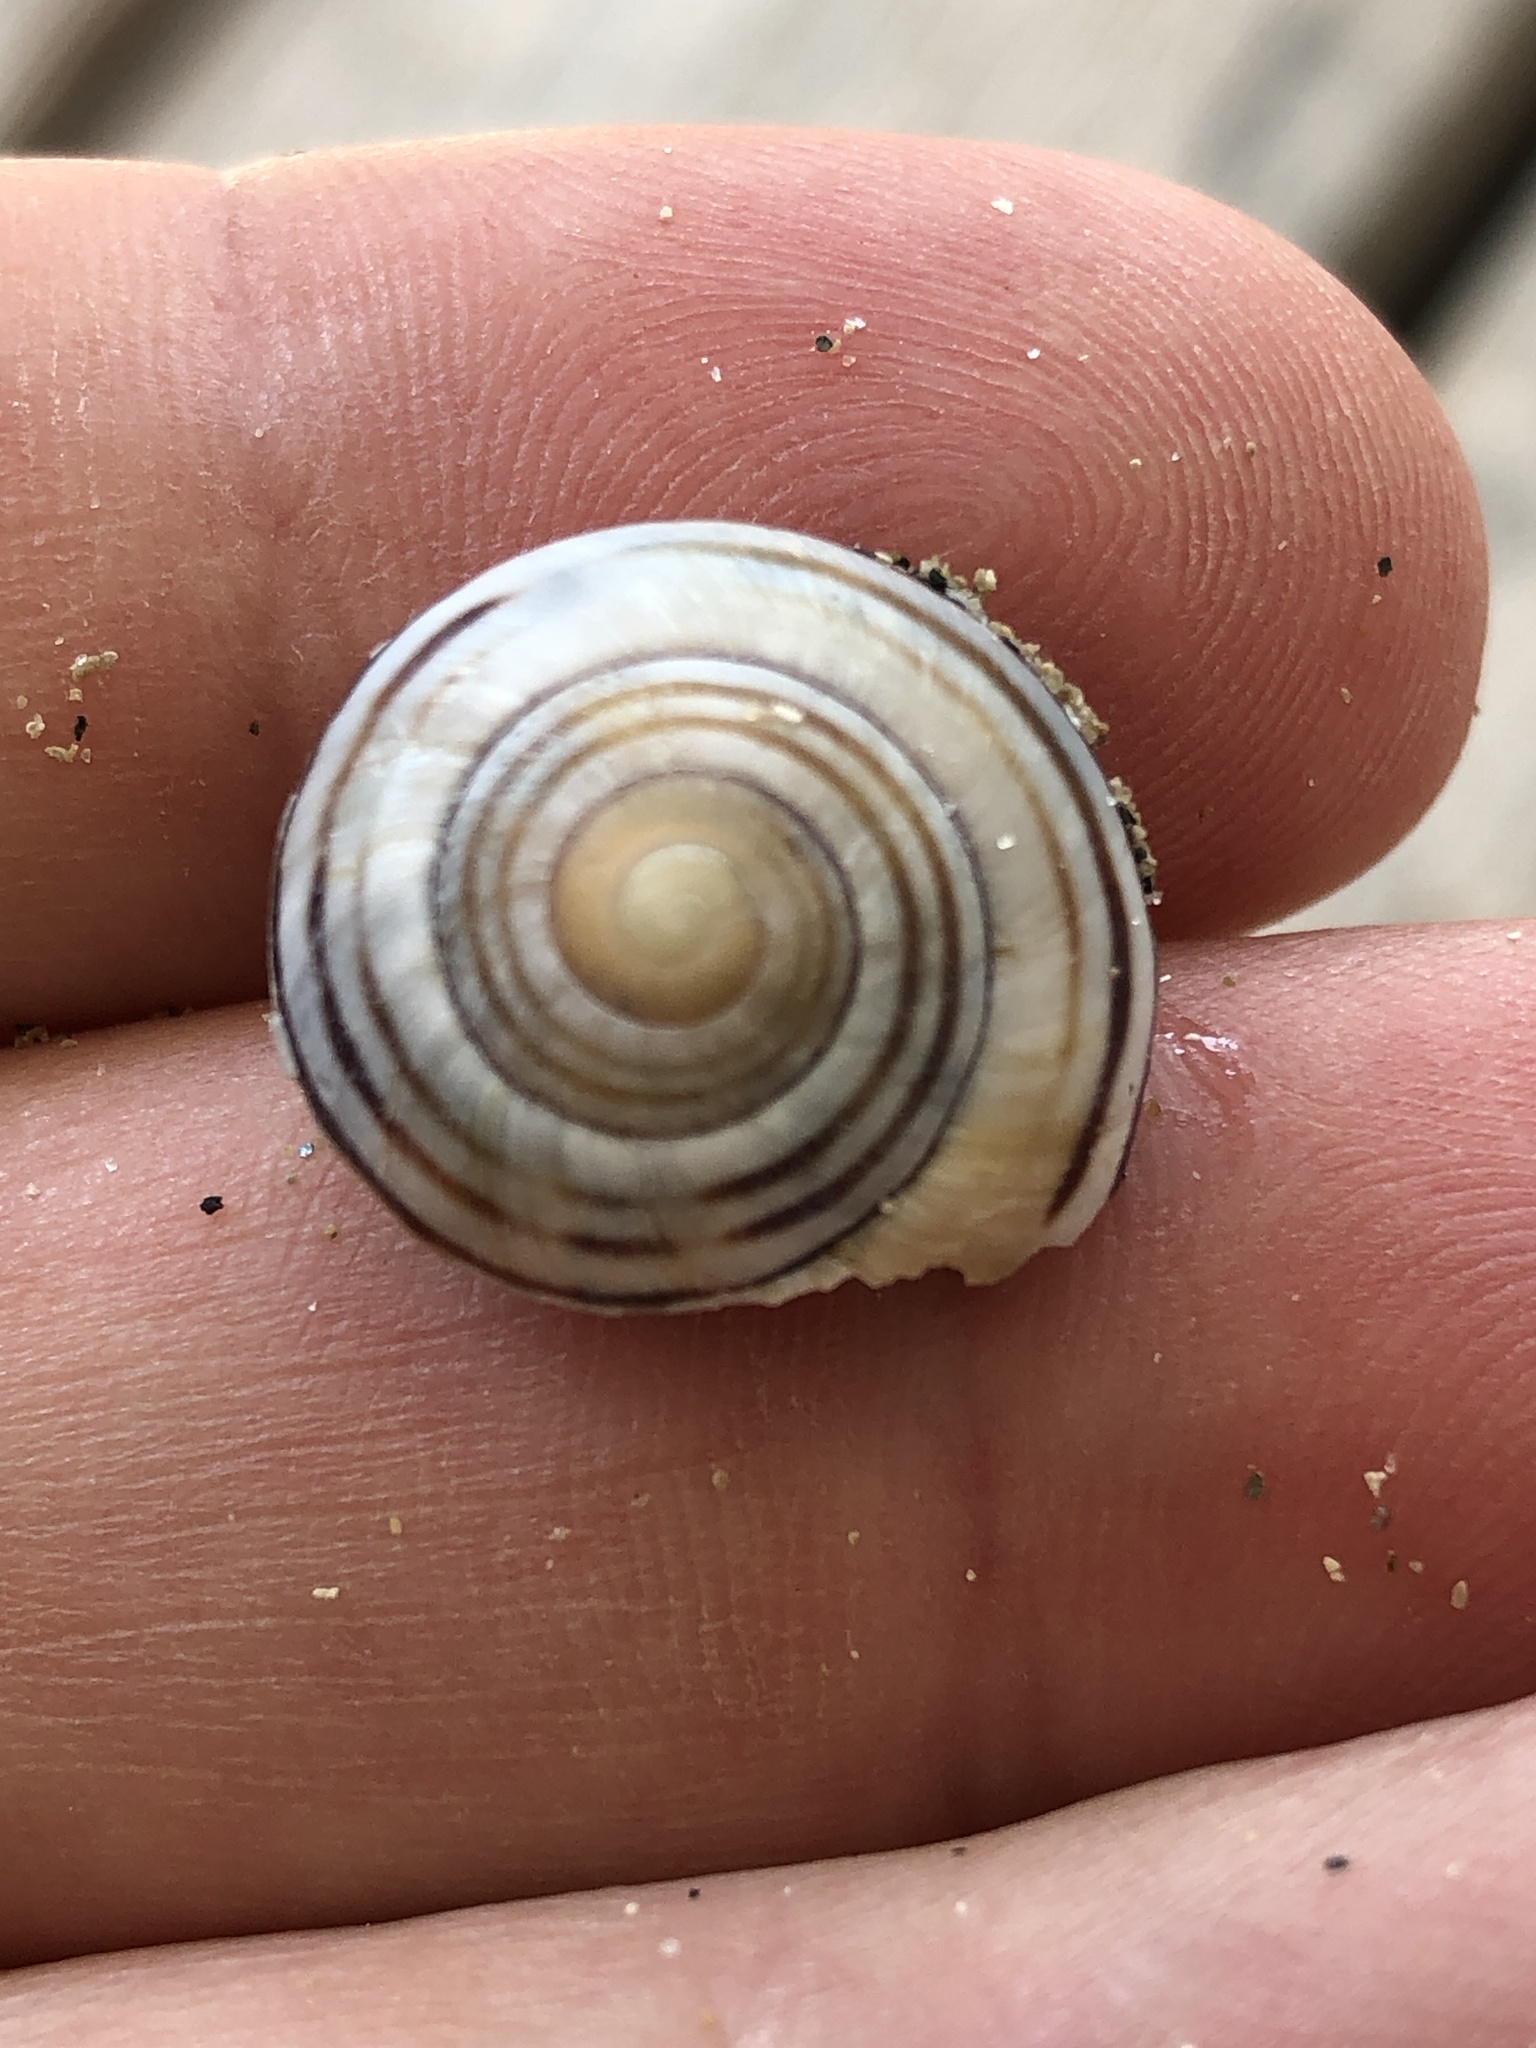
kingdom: Animalia
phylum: Mollusca
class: Gastropoda
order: Stylommatophora
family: Helicidae
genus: Cepaea
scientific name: Cepaea nemoralis
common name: Grovesnail
